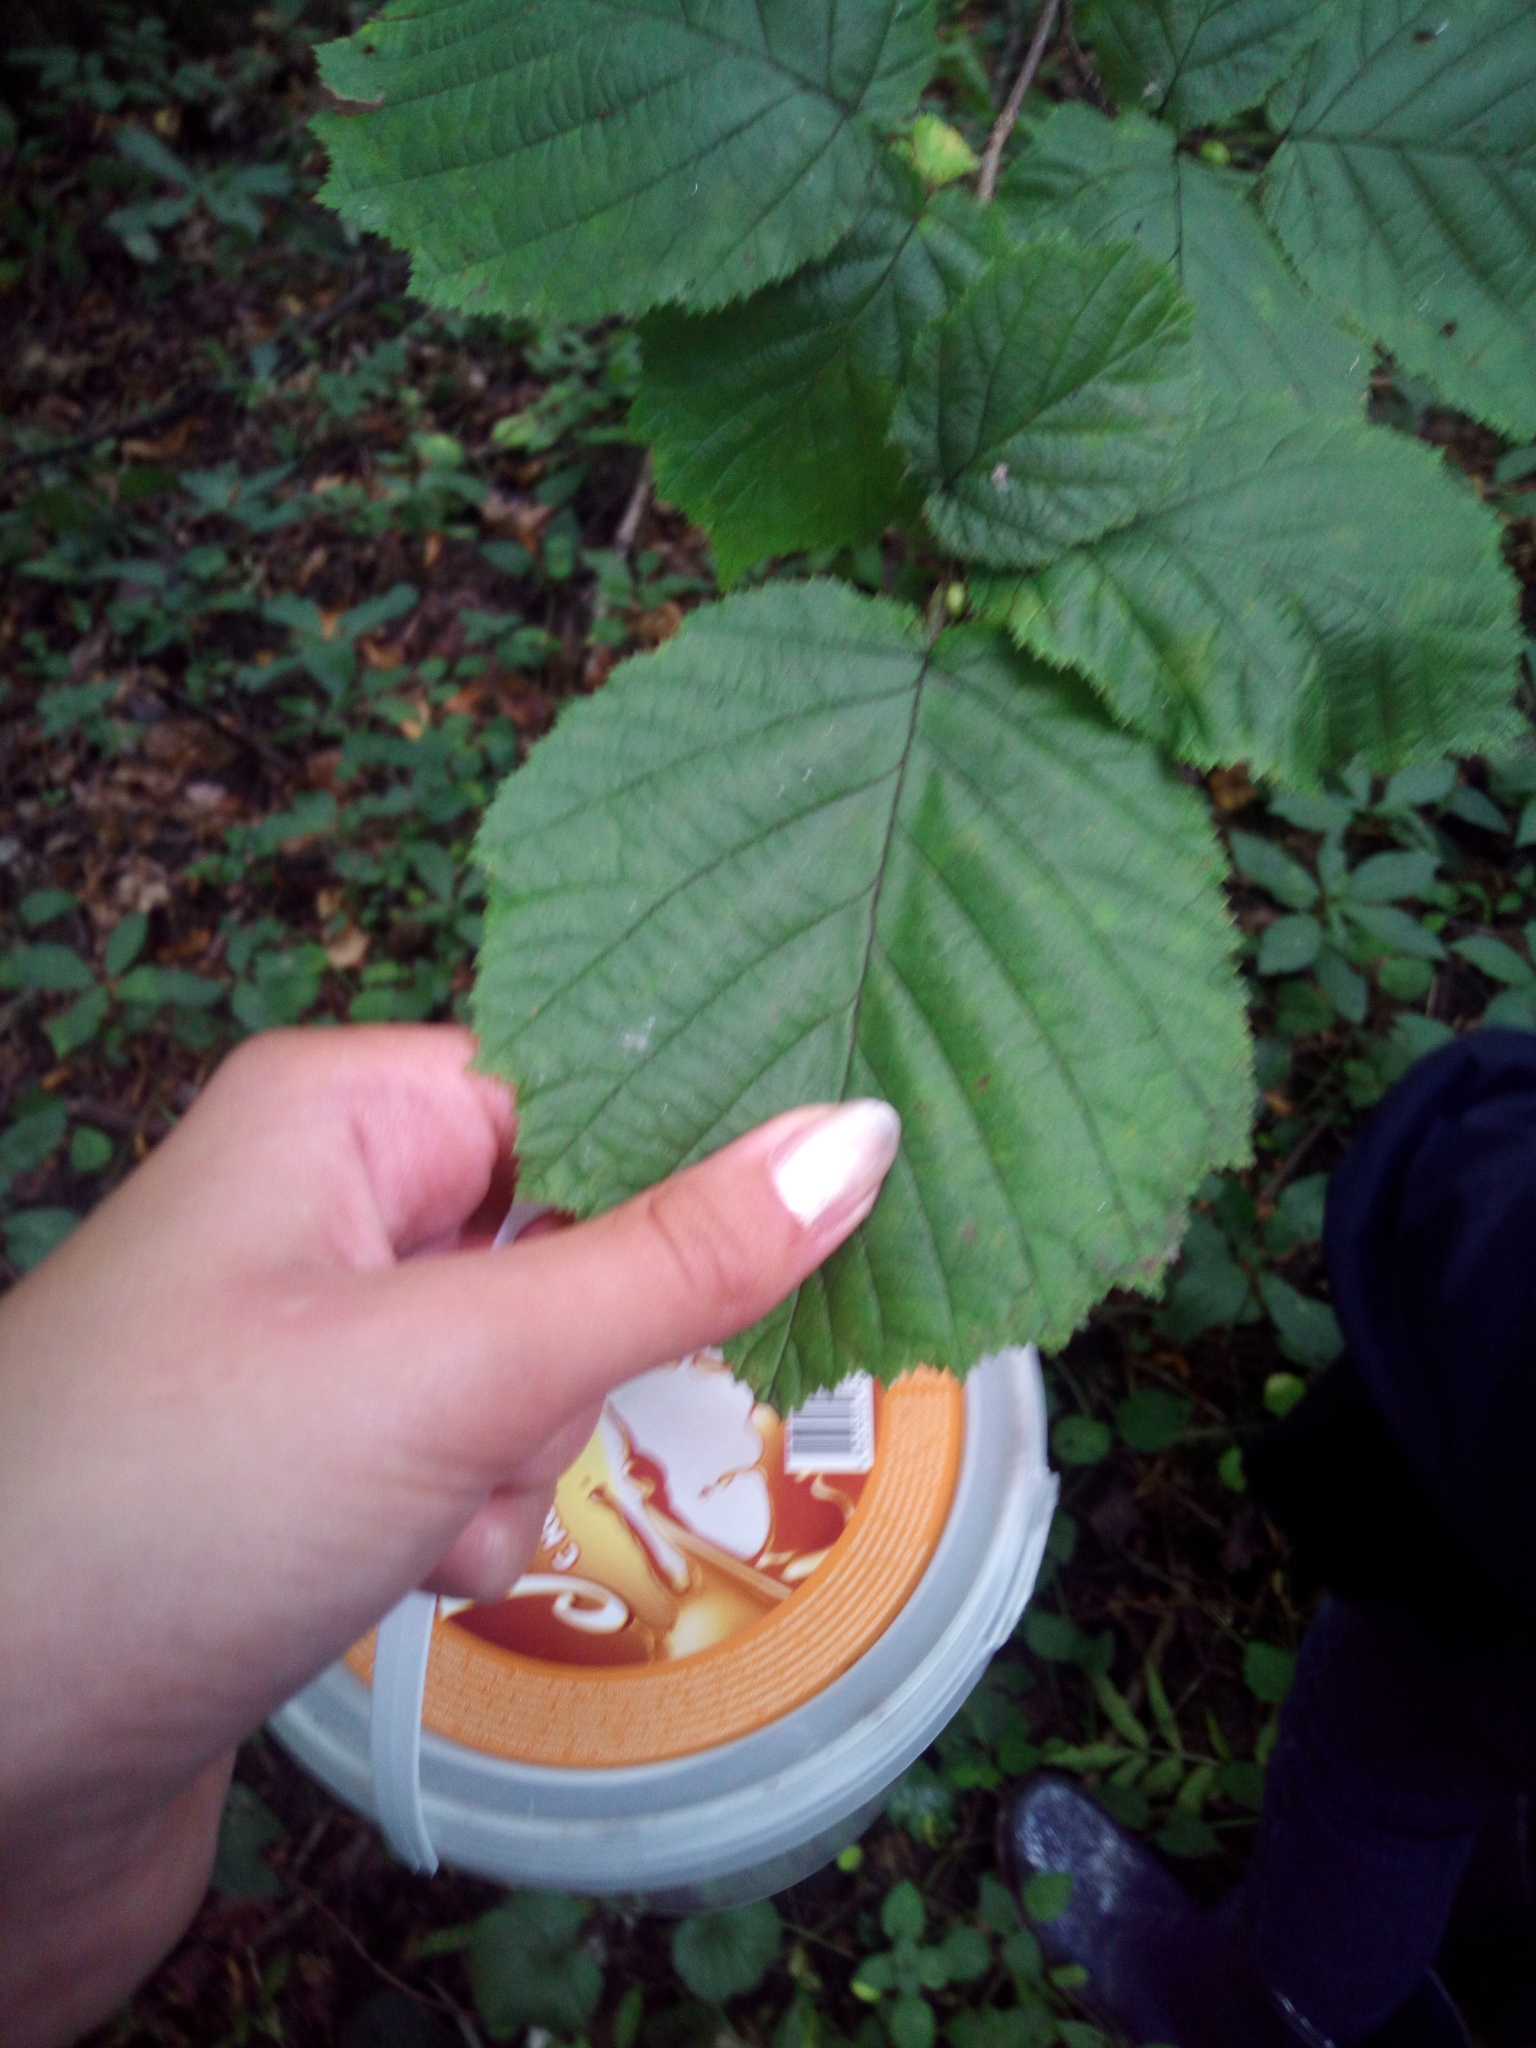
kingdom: Plantae
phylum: Tracheophyta
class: Magnoliopsida
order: Fagales
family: Betulaceae
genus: Corylus
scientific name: Corylus avellana
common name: European hazel
